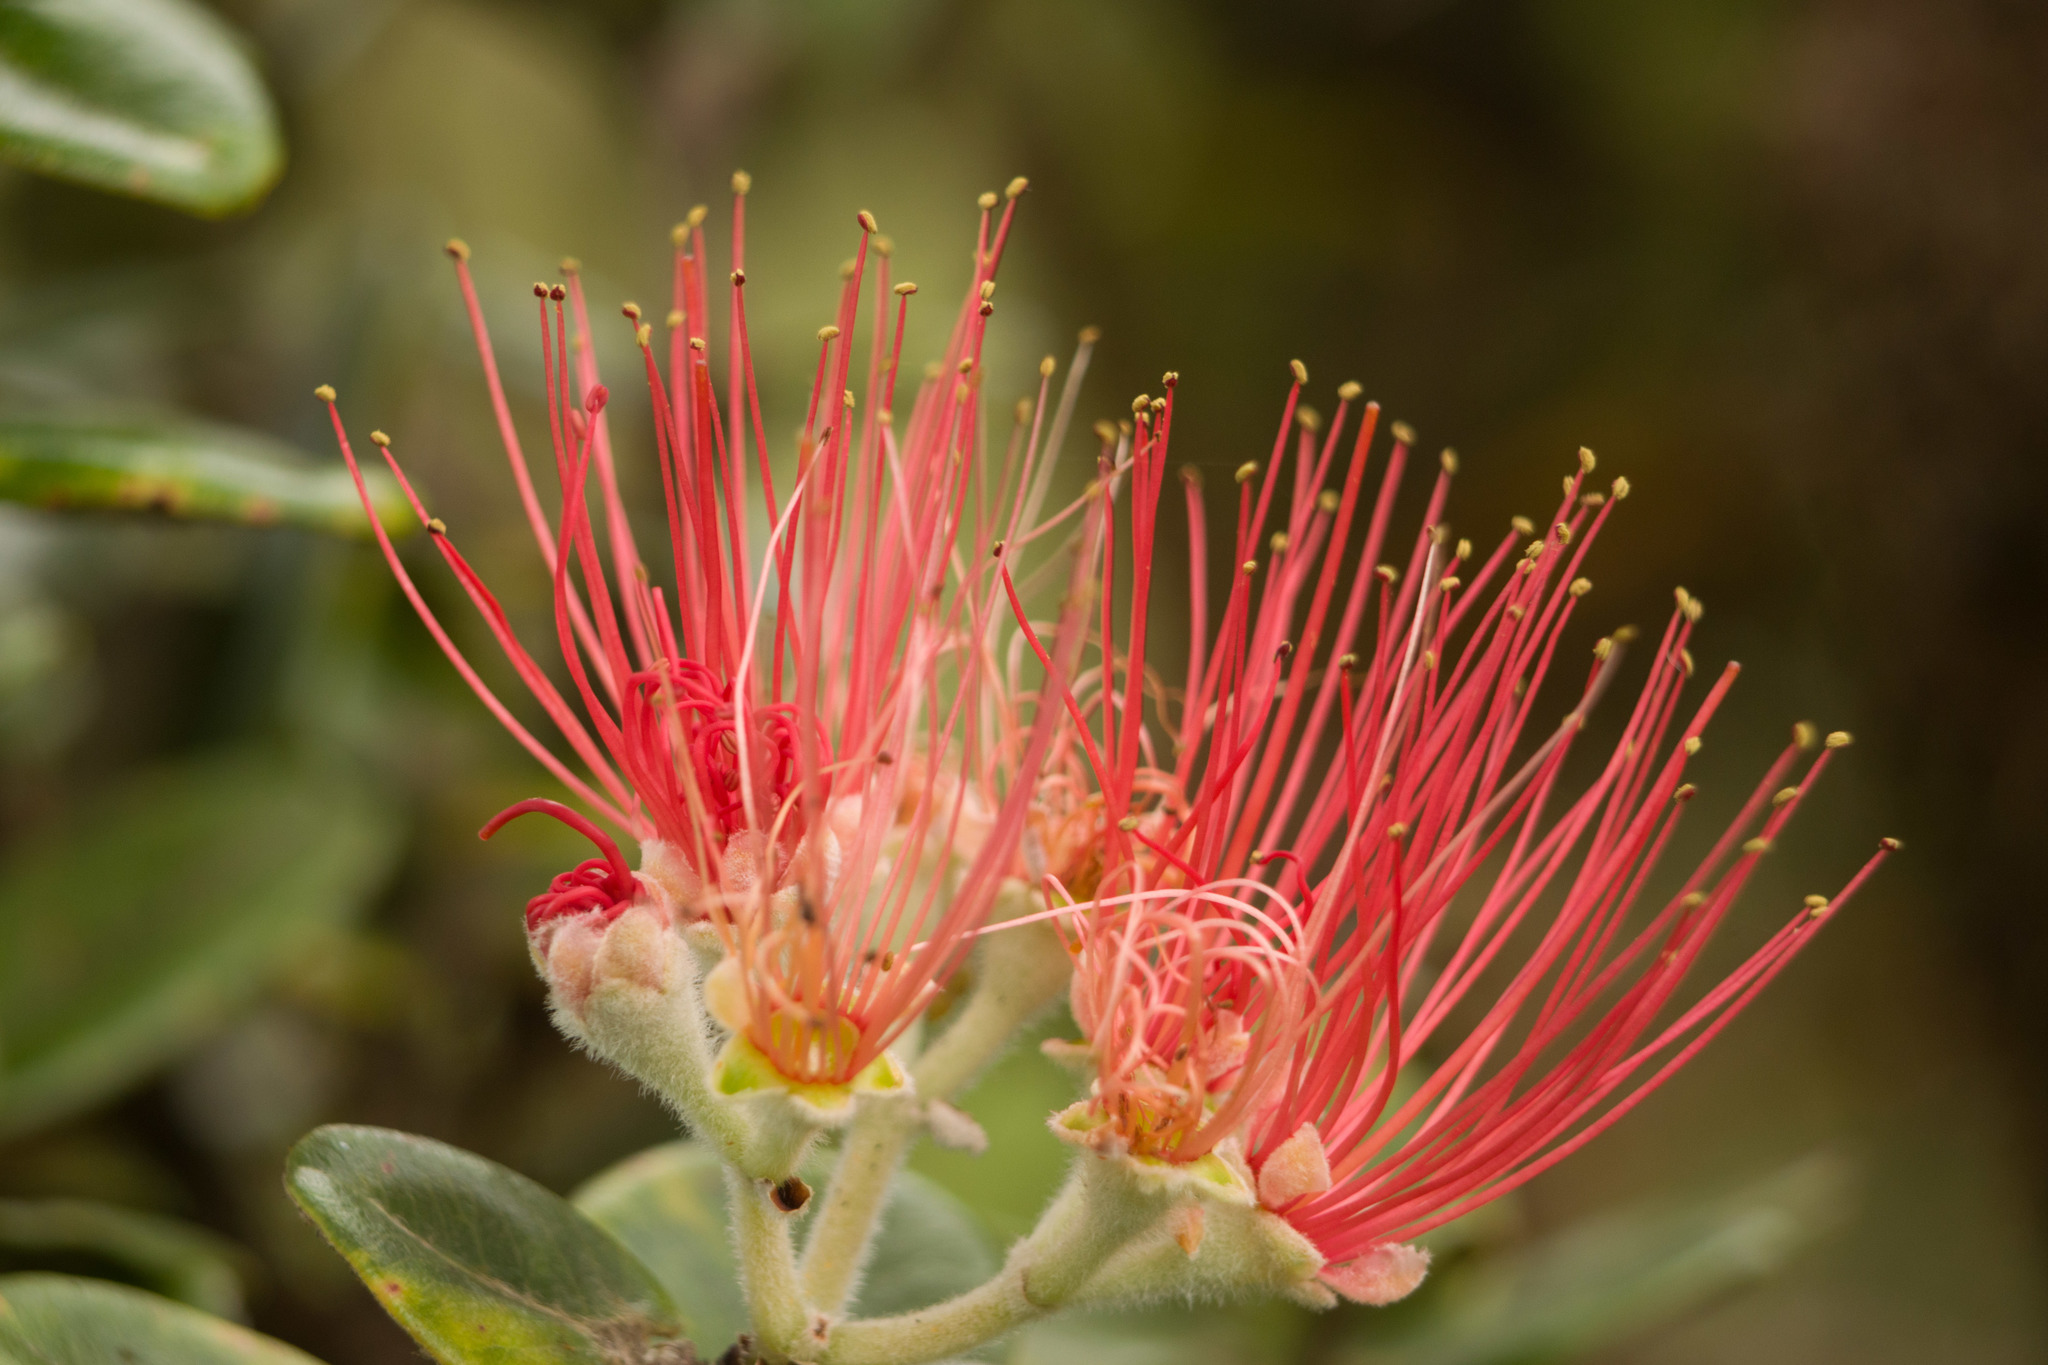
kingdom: Plantae
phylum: Tracheophyta
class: Magnoliopsida
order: Myrtales
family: Myrtaceae
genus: Metrosideros
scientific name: Metrosideros polymorpha
